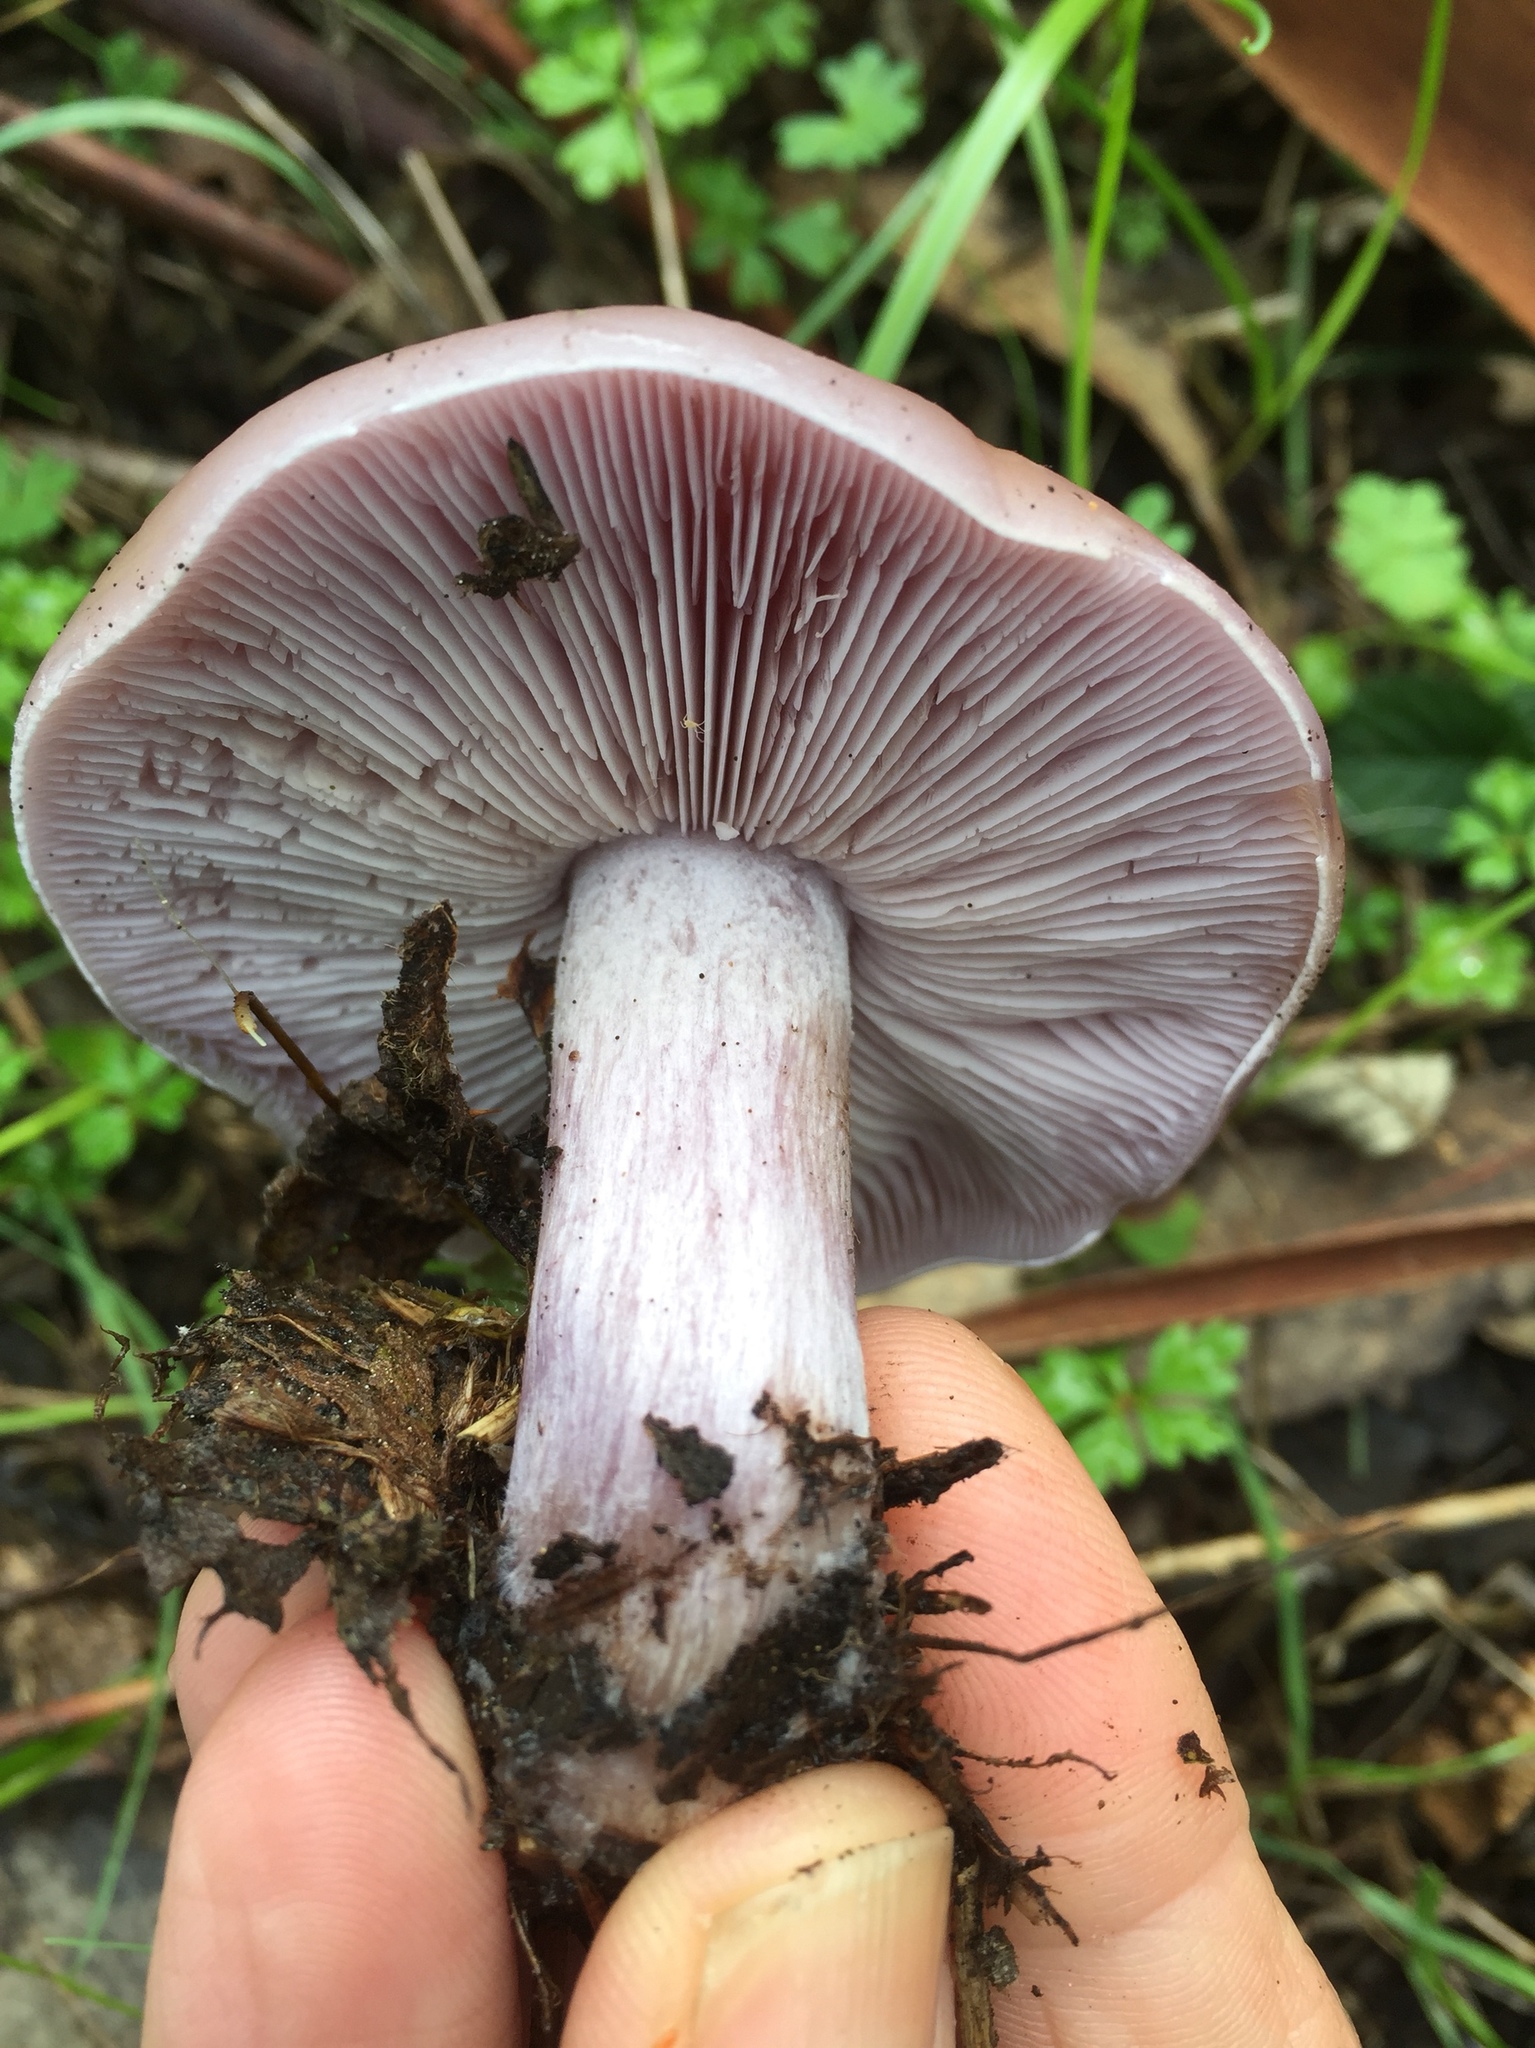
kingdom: Fungi
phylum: Basidiomycota
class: Agaricomycetes
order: Agaricales
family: Tricholomataceae
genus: Collybia
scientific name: Collybia
